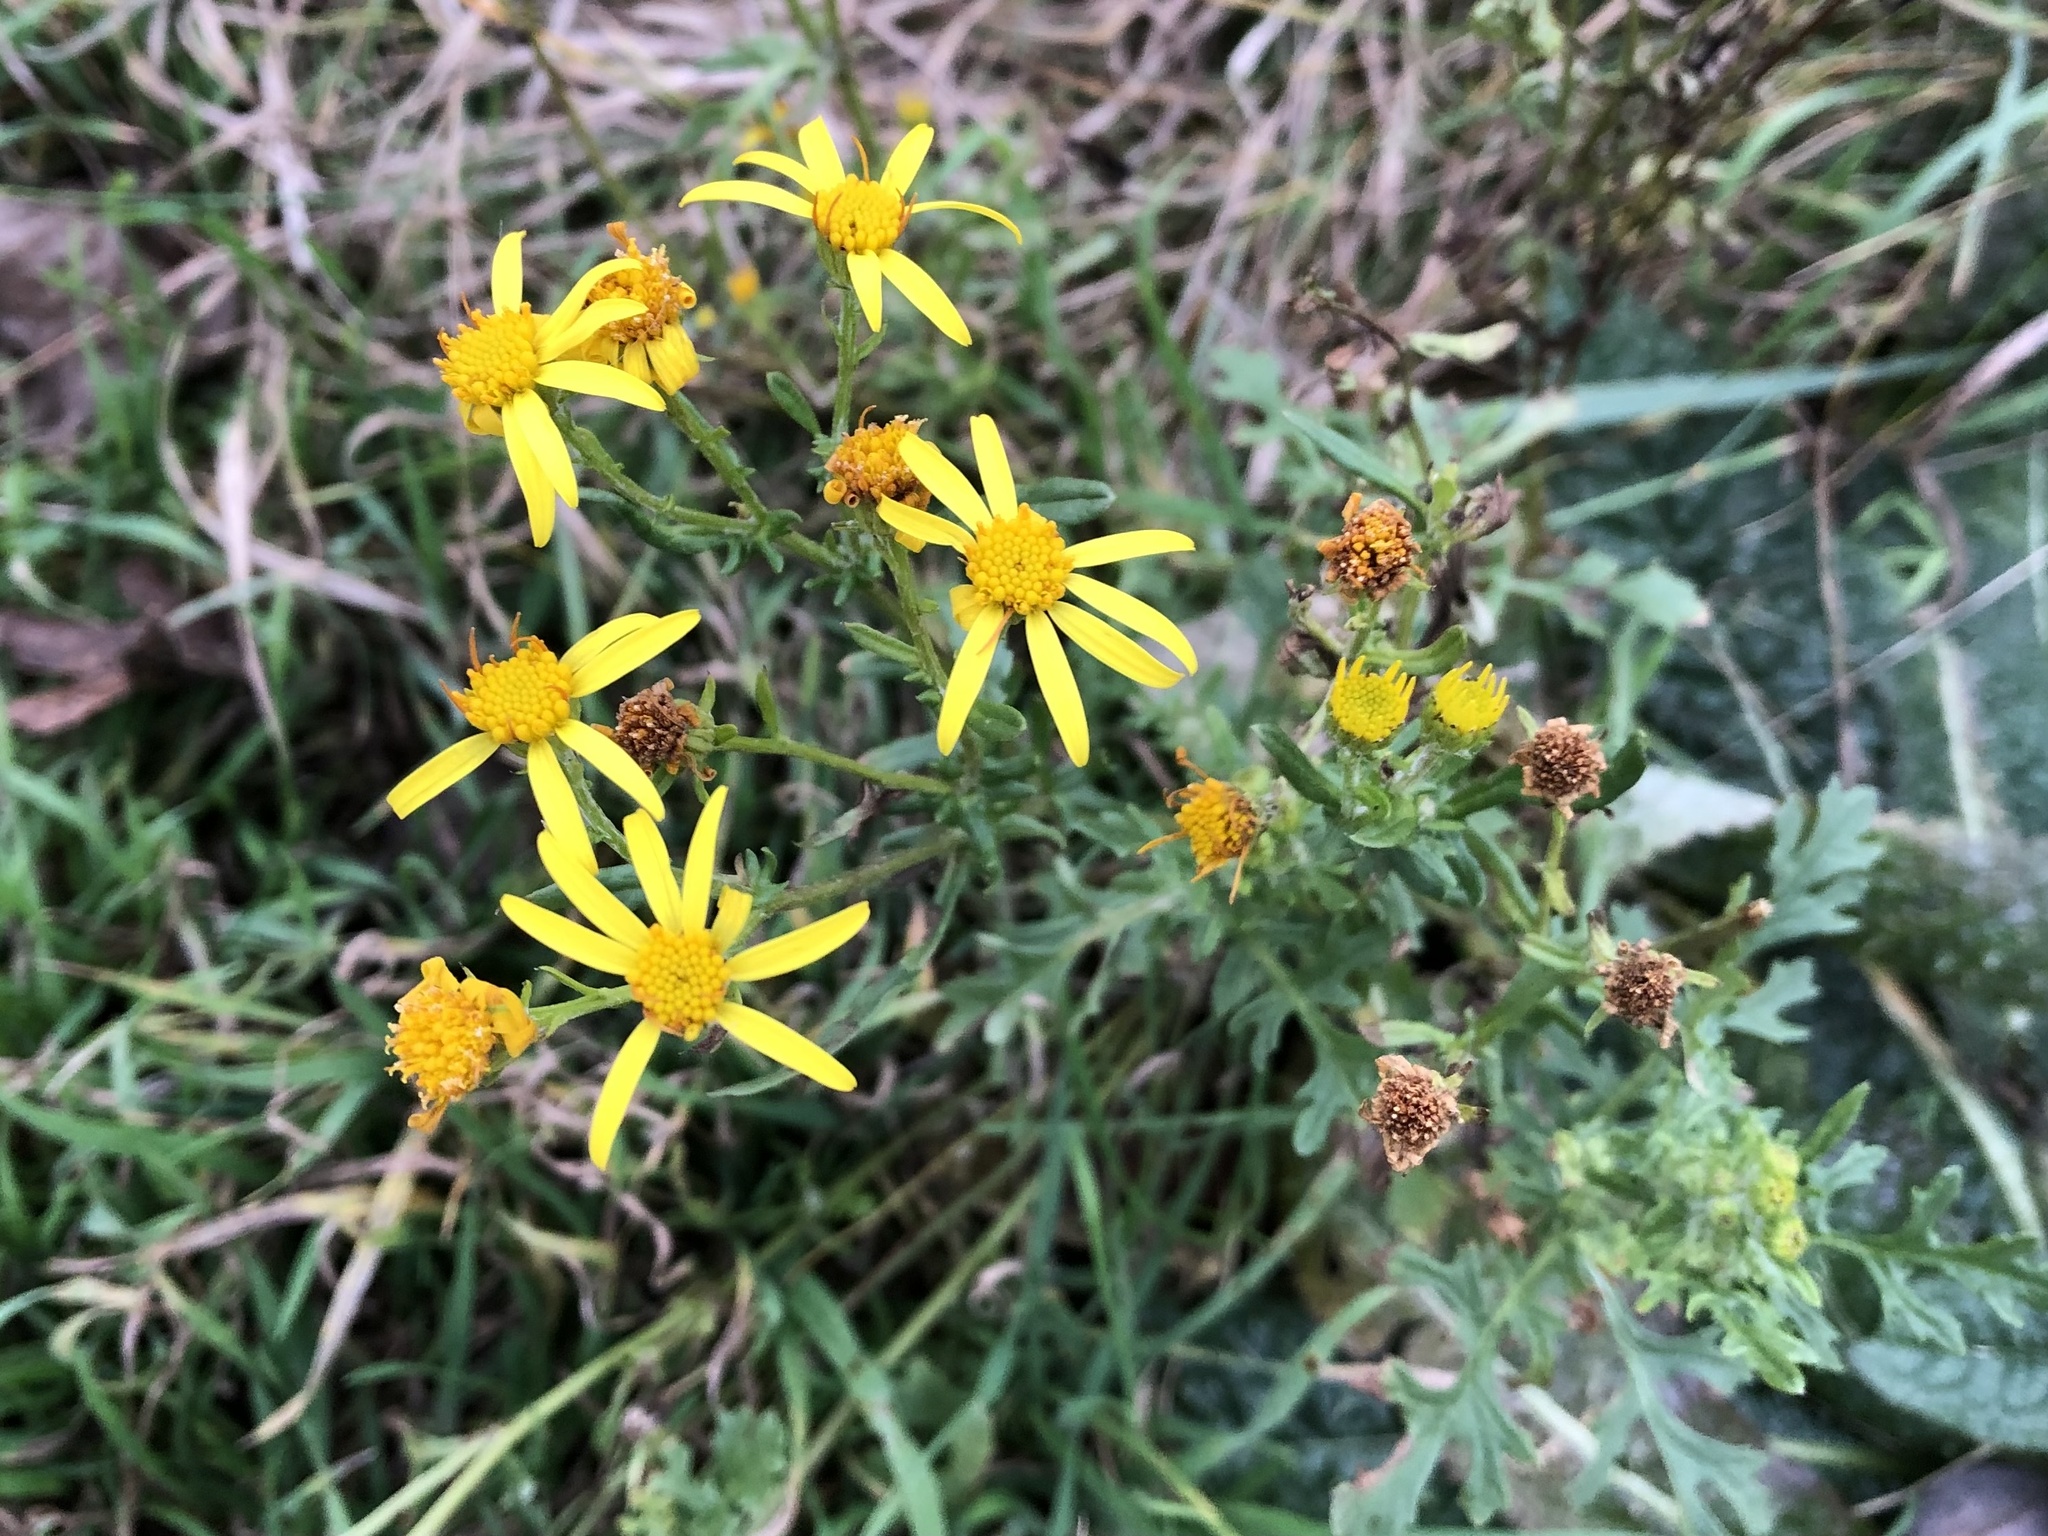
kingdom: Plantae
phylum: Tracheophyta
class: Magnoliopsida
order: Asterales
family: Asteraceae
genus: Jacobaea
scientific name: Jacobaea vulgaris
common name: Stinking willie
